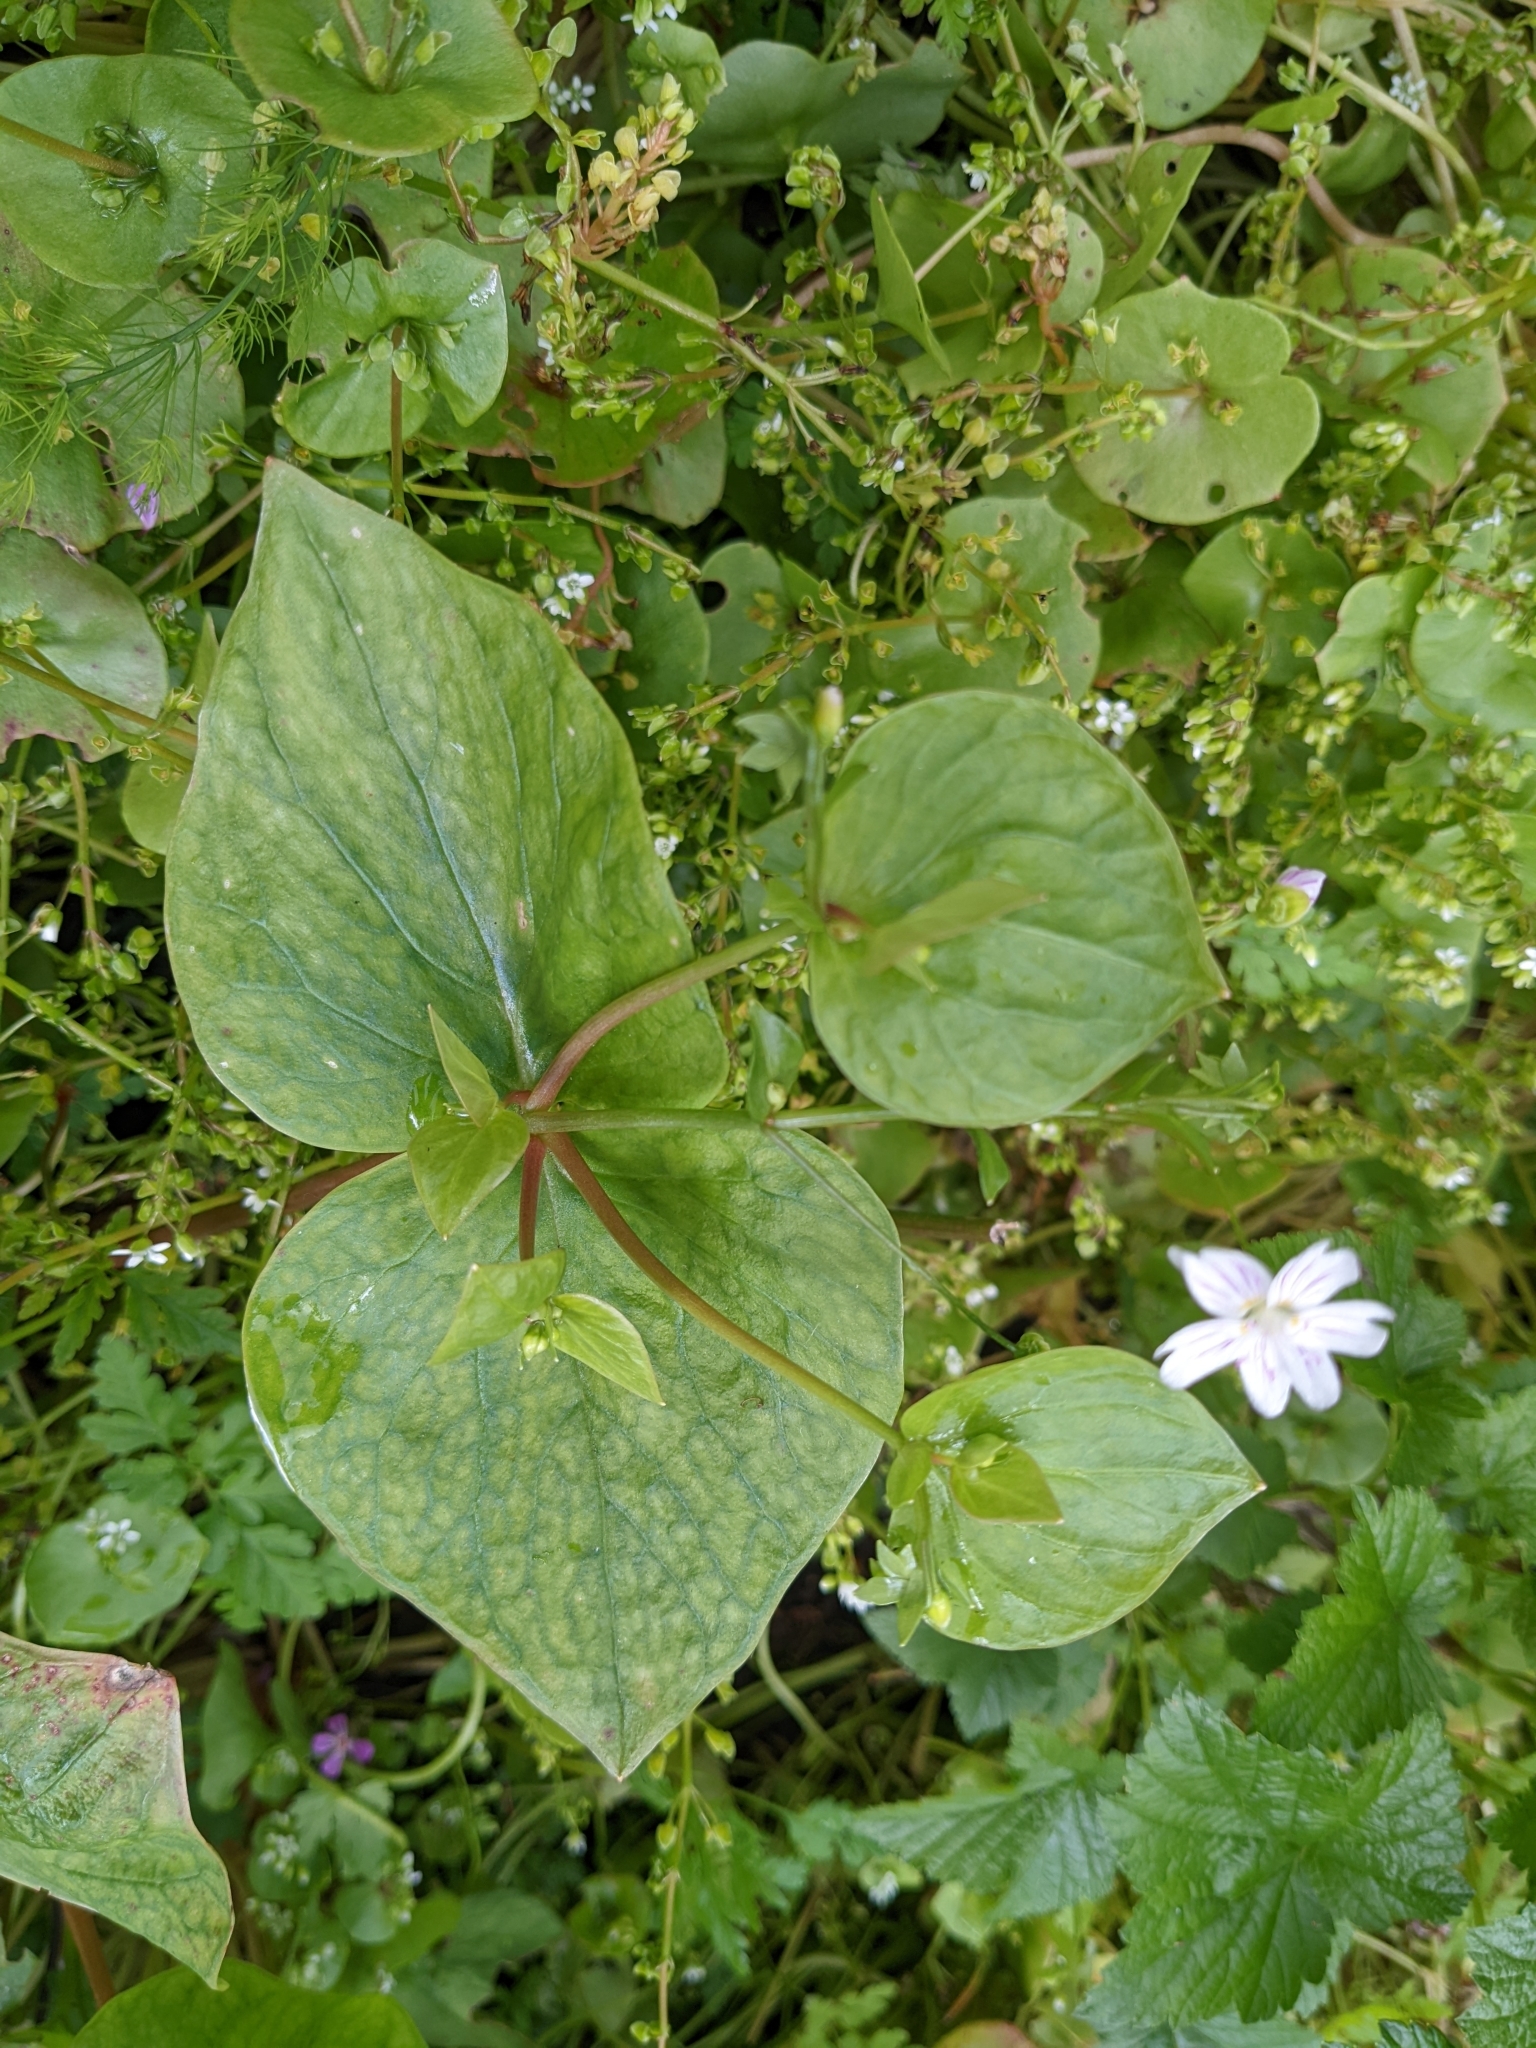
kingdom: Plantae
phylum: Tracheophyta
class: Magnoliopsida
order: Caryophyllales
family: Montiaceae
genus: Claytonia
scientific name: Claytonia sibirica
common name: Pink purslane
